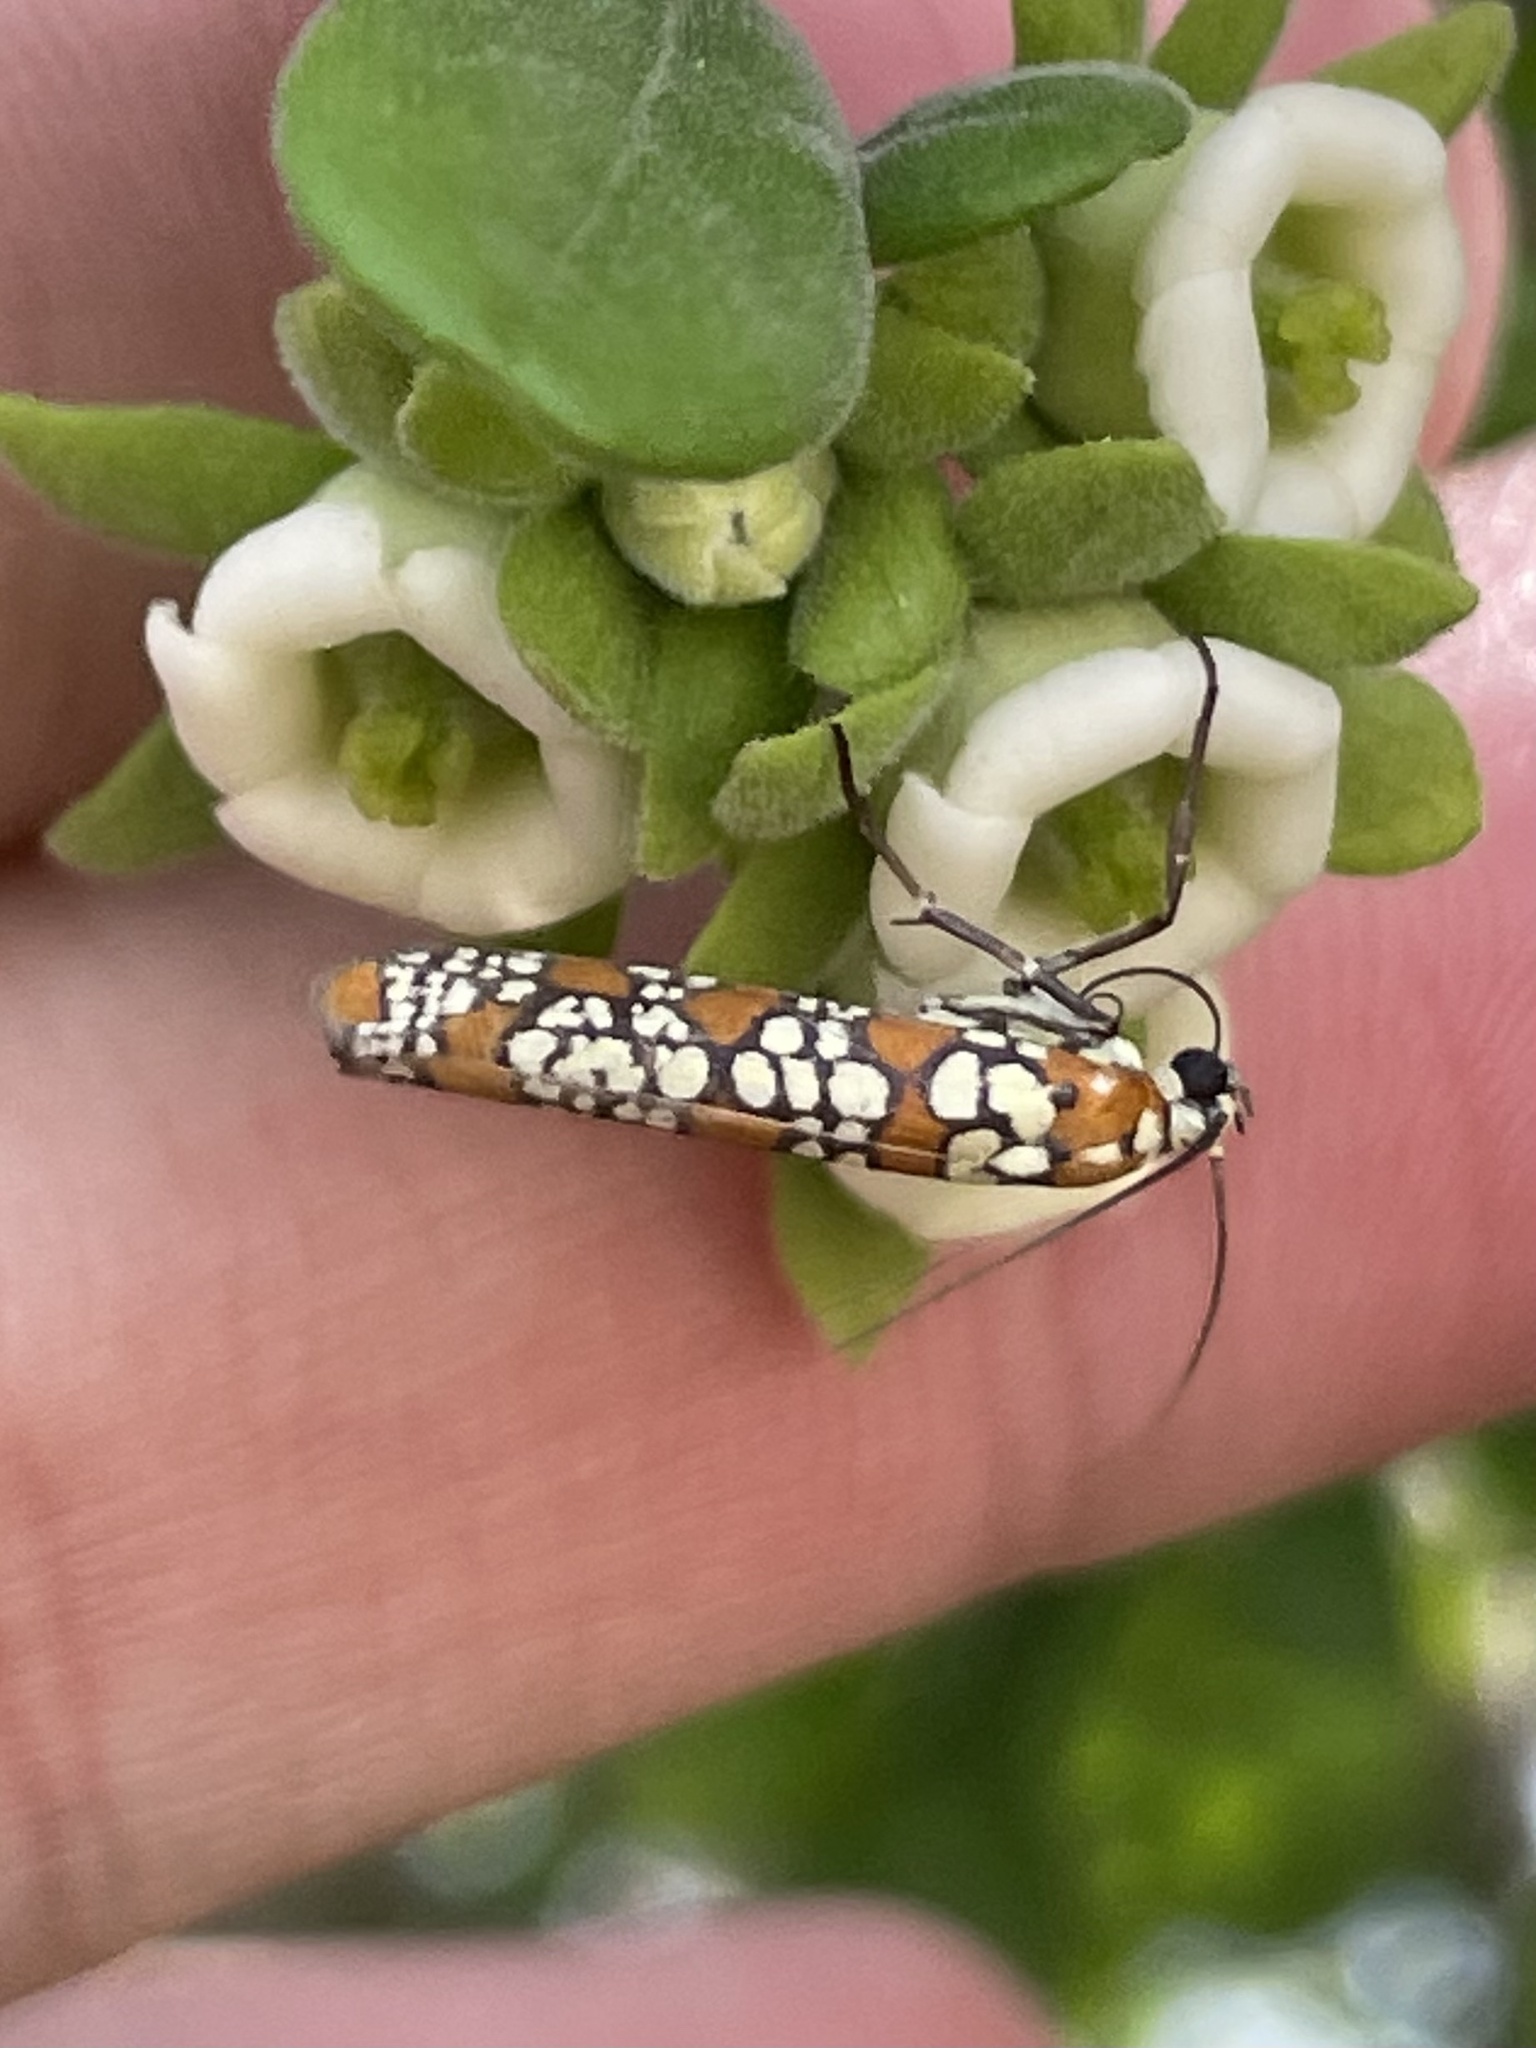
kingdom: Animalia
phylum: Arthropoda
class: Insecta
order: Lepidoptera
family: Attevidae
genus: Atteva
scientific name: Atteva punctella
